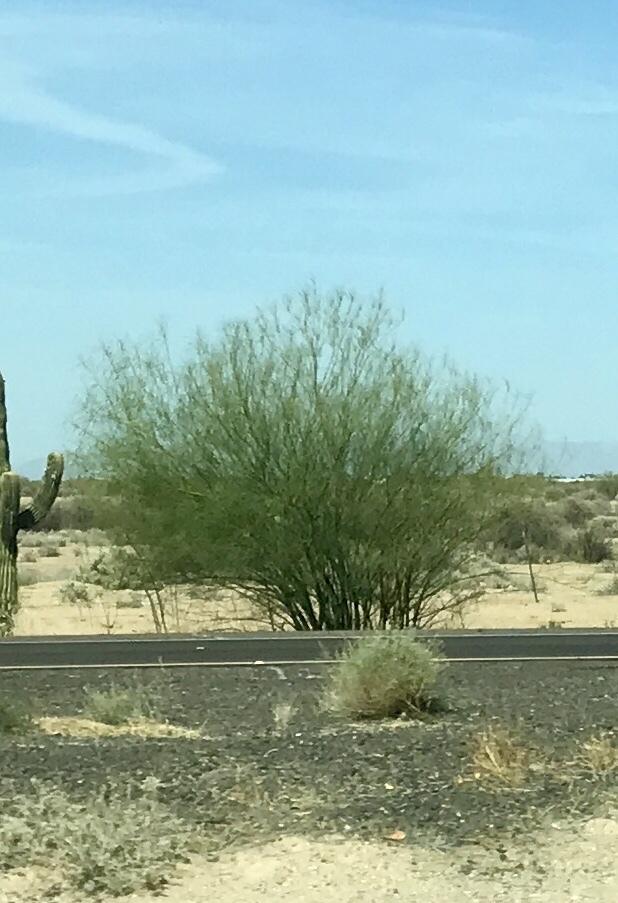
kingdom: Plantae
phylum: Tracheophyta
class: Magnoliopsida
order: Fabales
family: Fabaceae
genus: Parkinsonia
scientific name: Parkinsonia aculeata
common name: Jerusalem thorn
